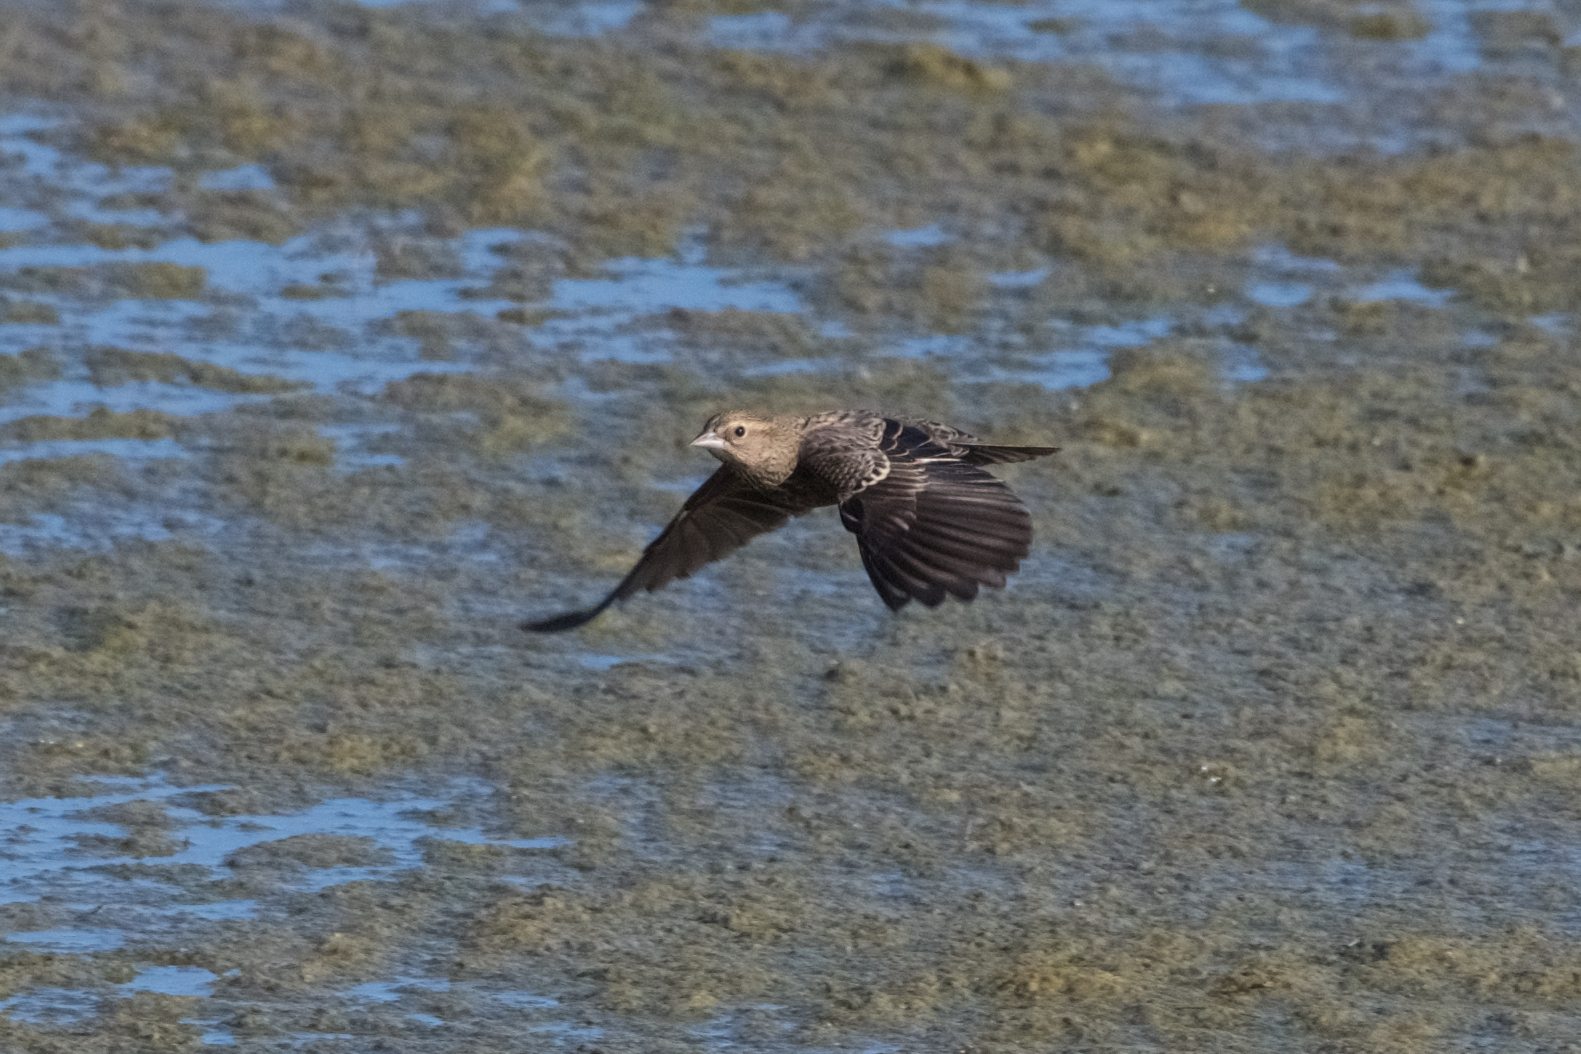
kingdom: Animalia
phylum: Chordata
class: Aves
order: Passeriformes
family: Icteridae
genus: Agelaius
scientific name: Agelaius phoeniceus
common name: Red-winged blackbird
